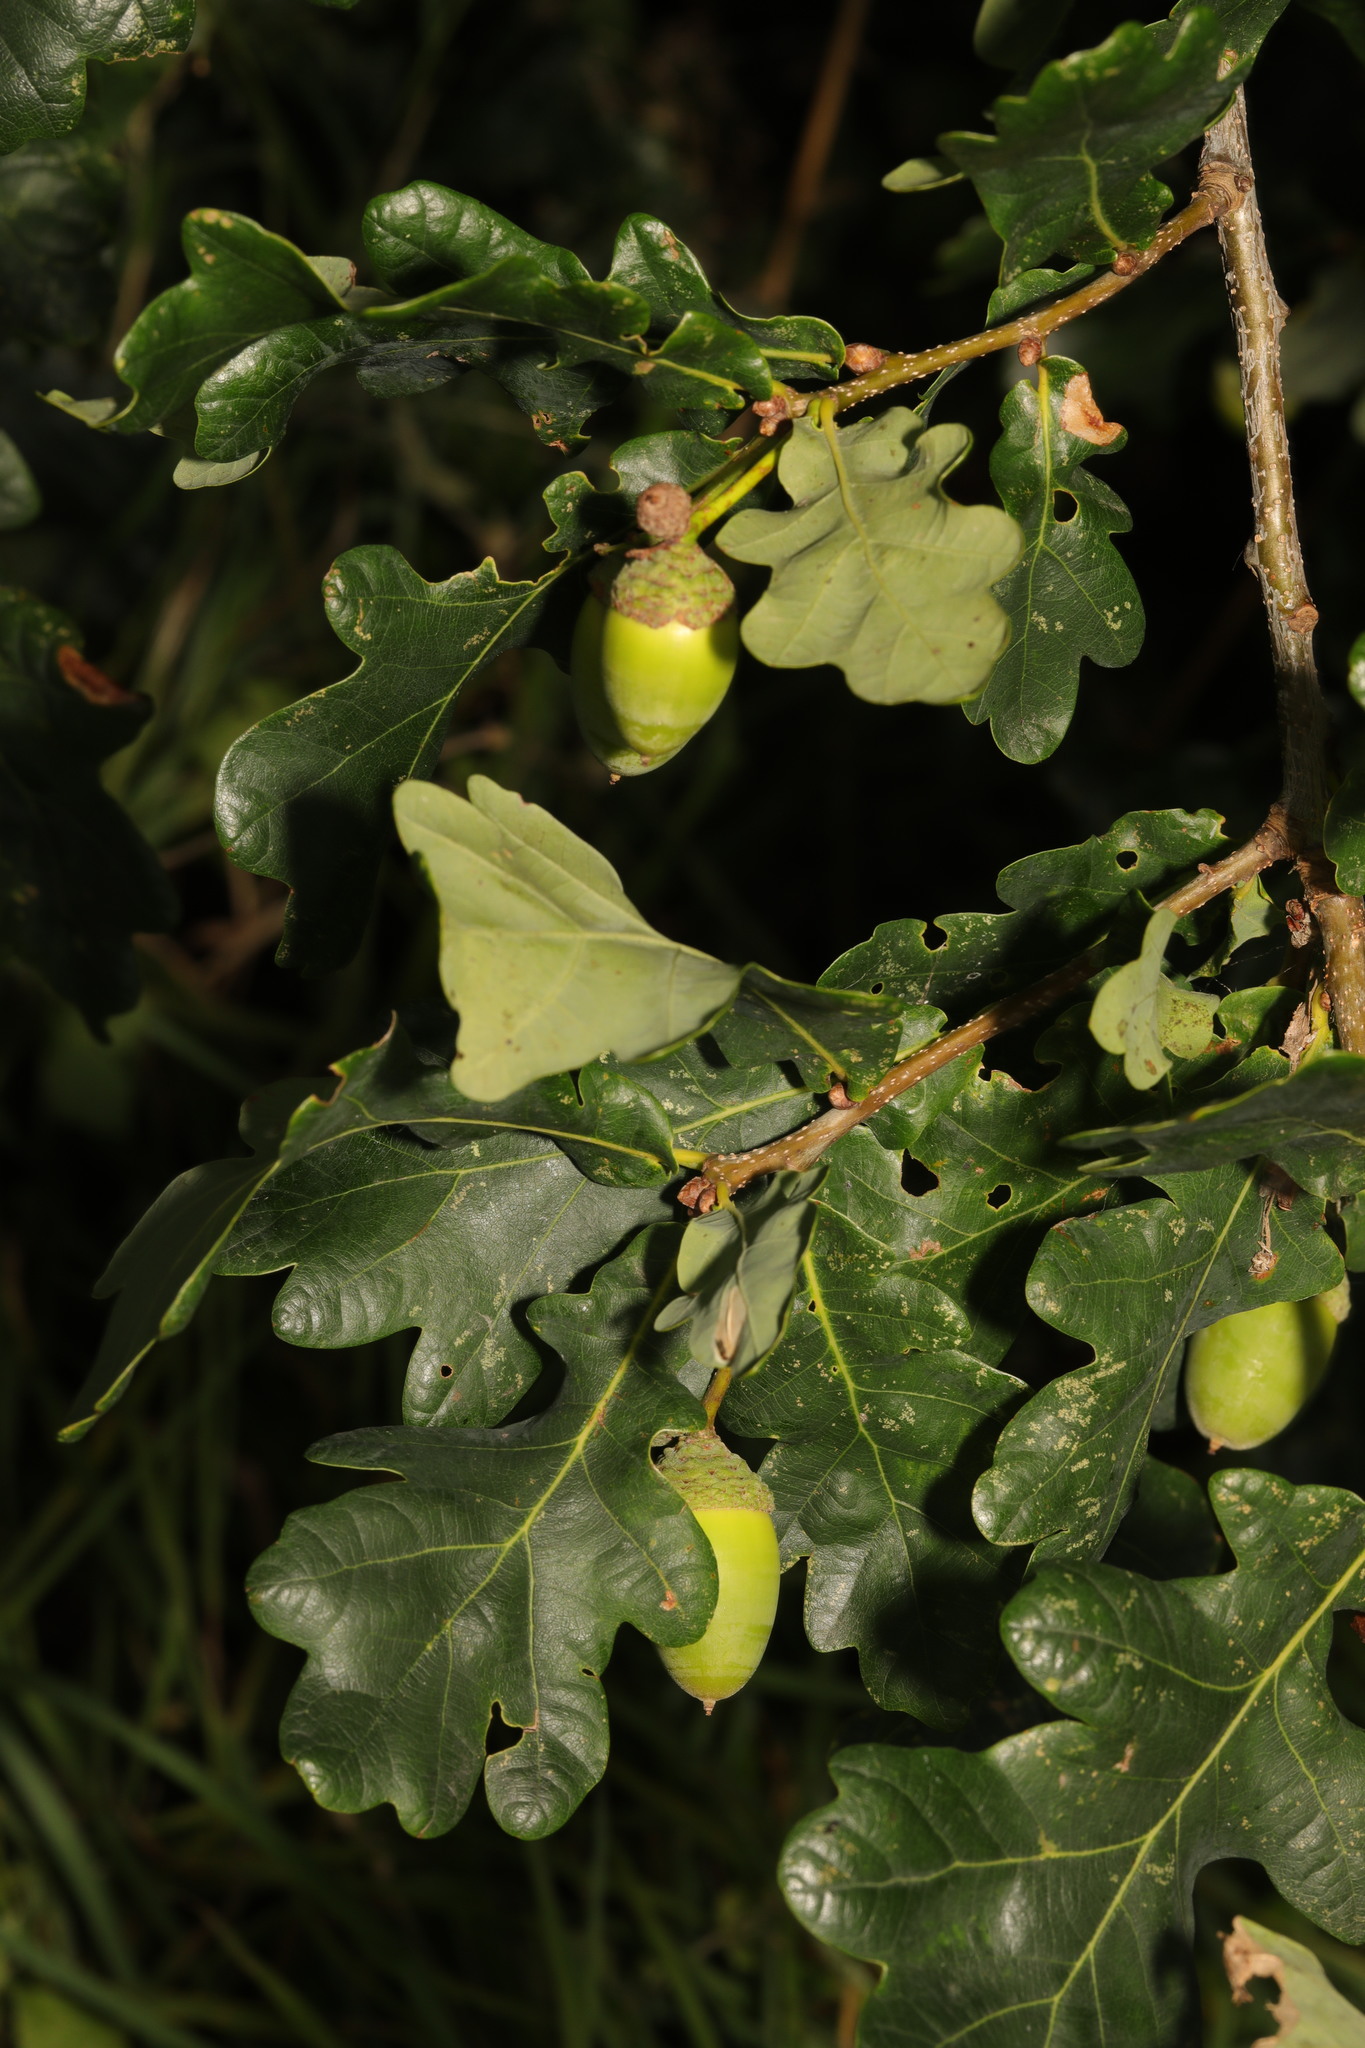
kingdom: Plantae
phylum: Tracheophyta
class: Magnoliopsida
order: Fagales
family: Fagaceae
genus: Quercus
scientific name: Quercus robur
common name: Pedunculate oak
